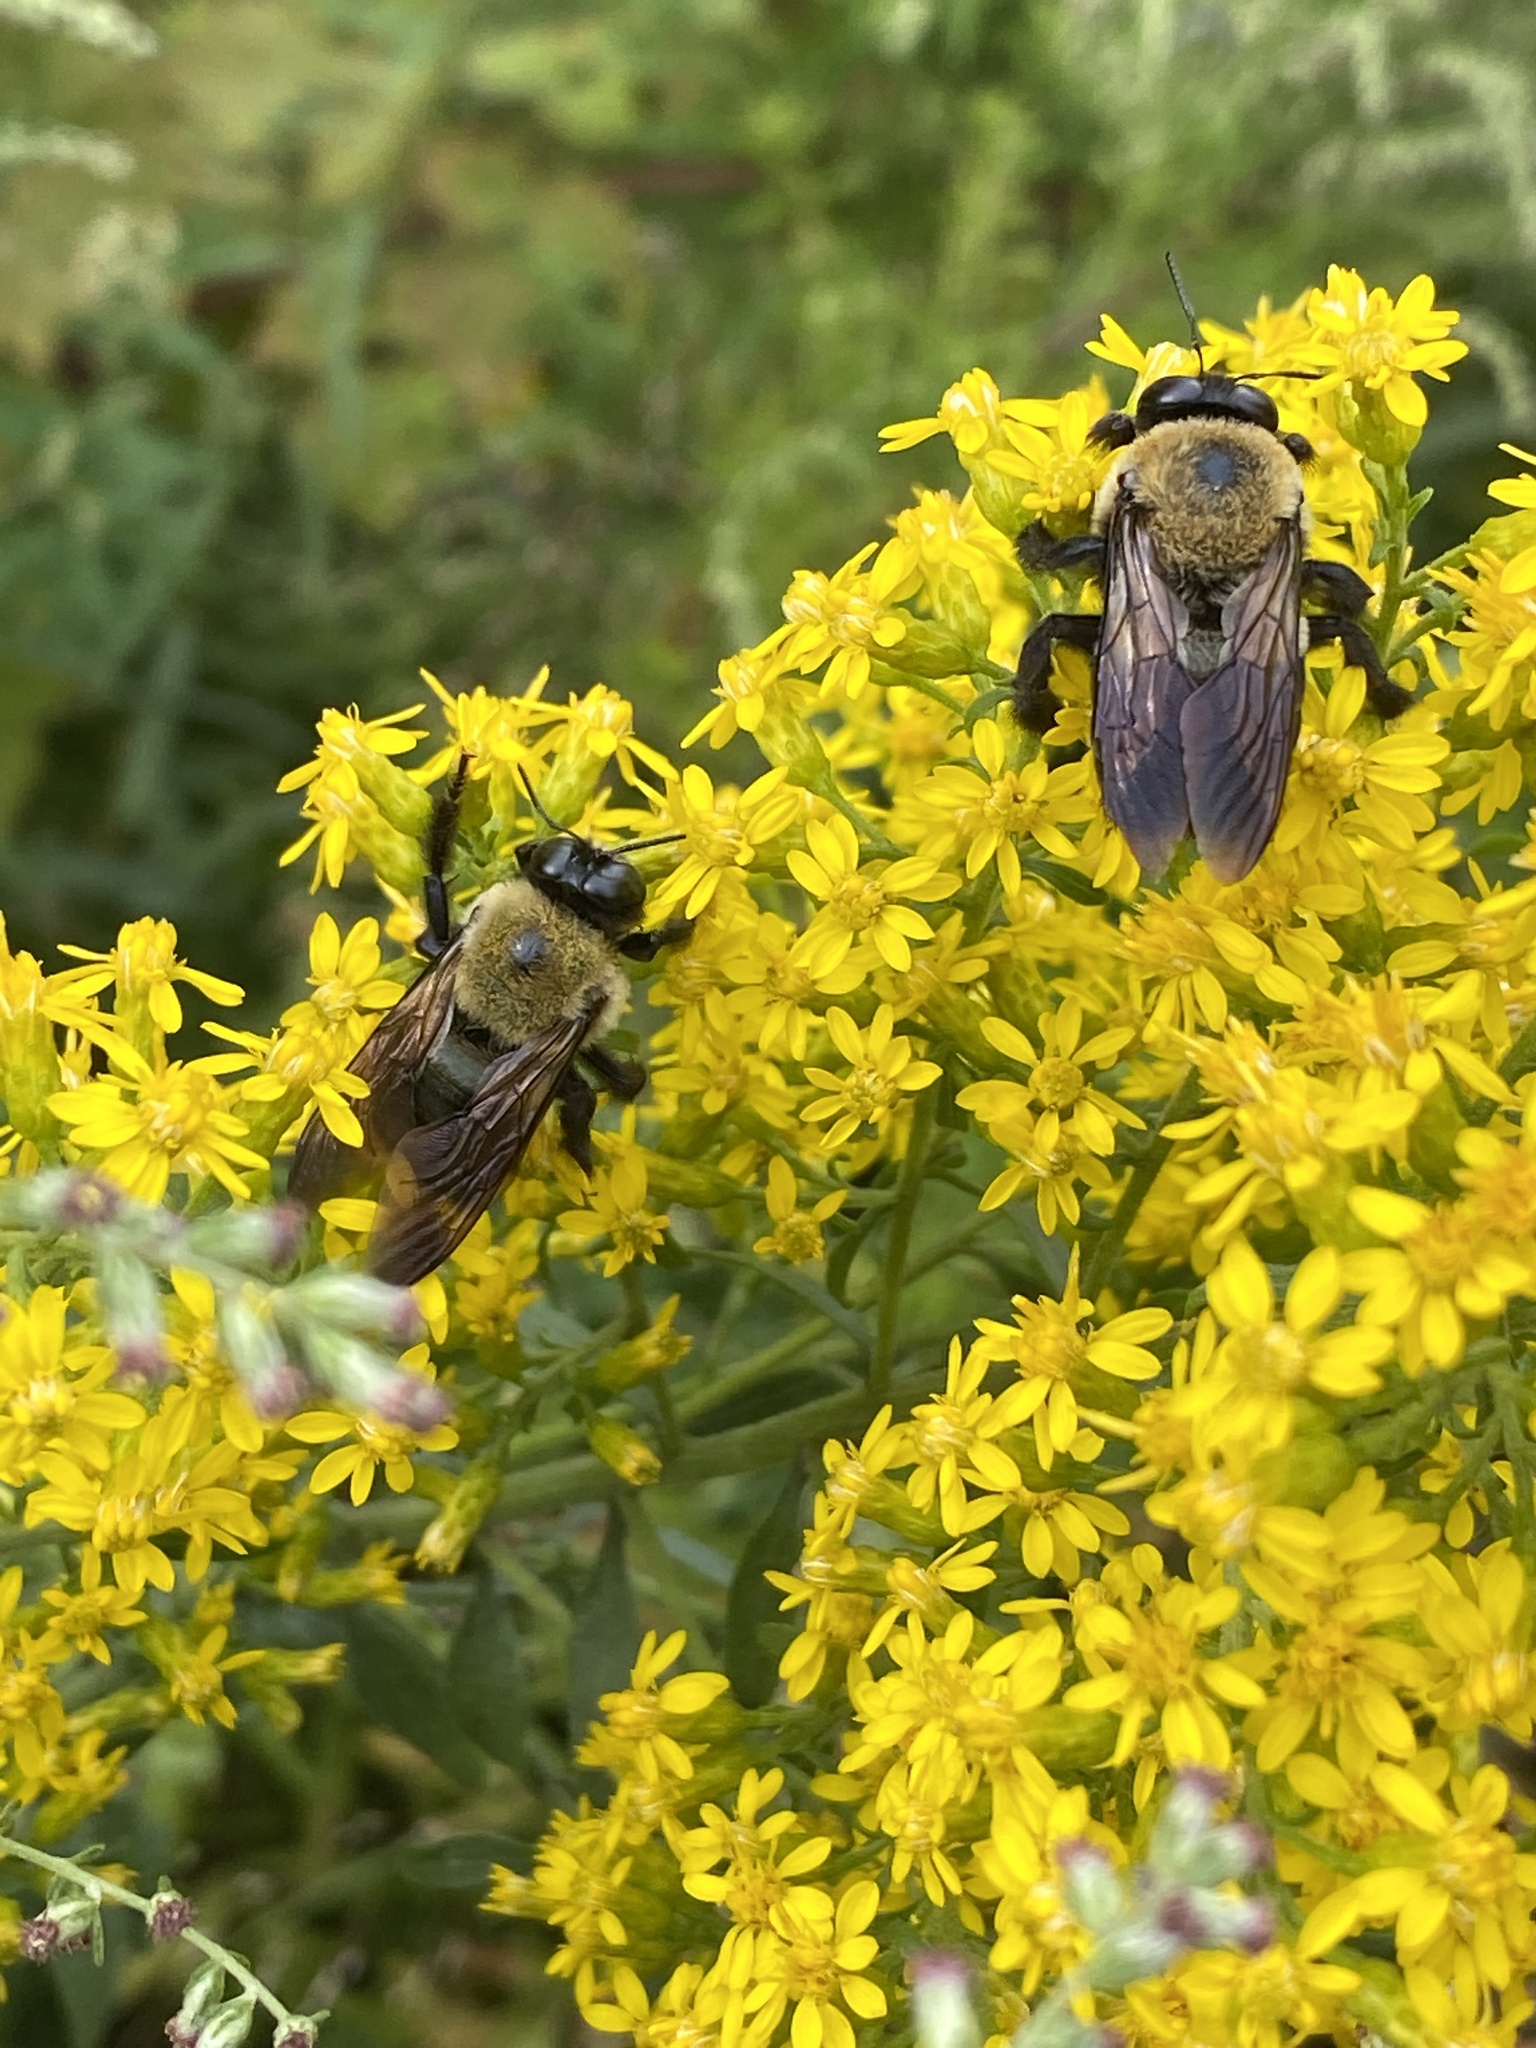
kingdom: Animalia
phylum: Arthropoda
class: Insecta
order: Hymenoptera
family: Apidae
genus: Xylocopa
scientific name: Xylocopa virginica
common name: Carpenter bee
